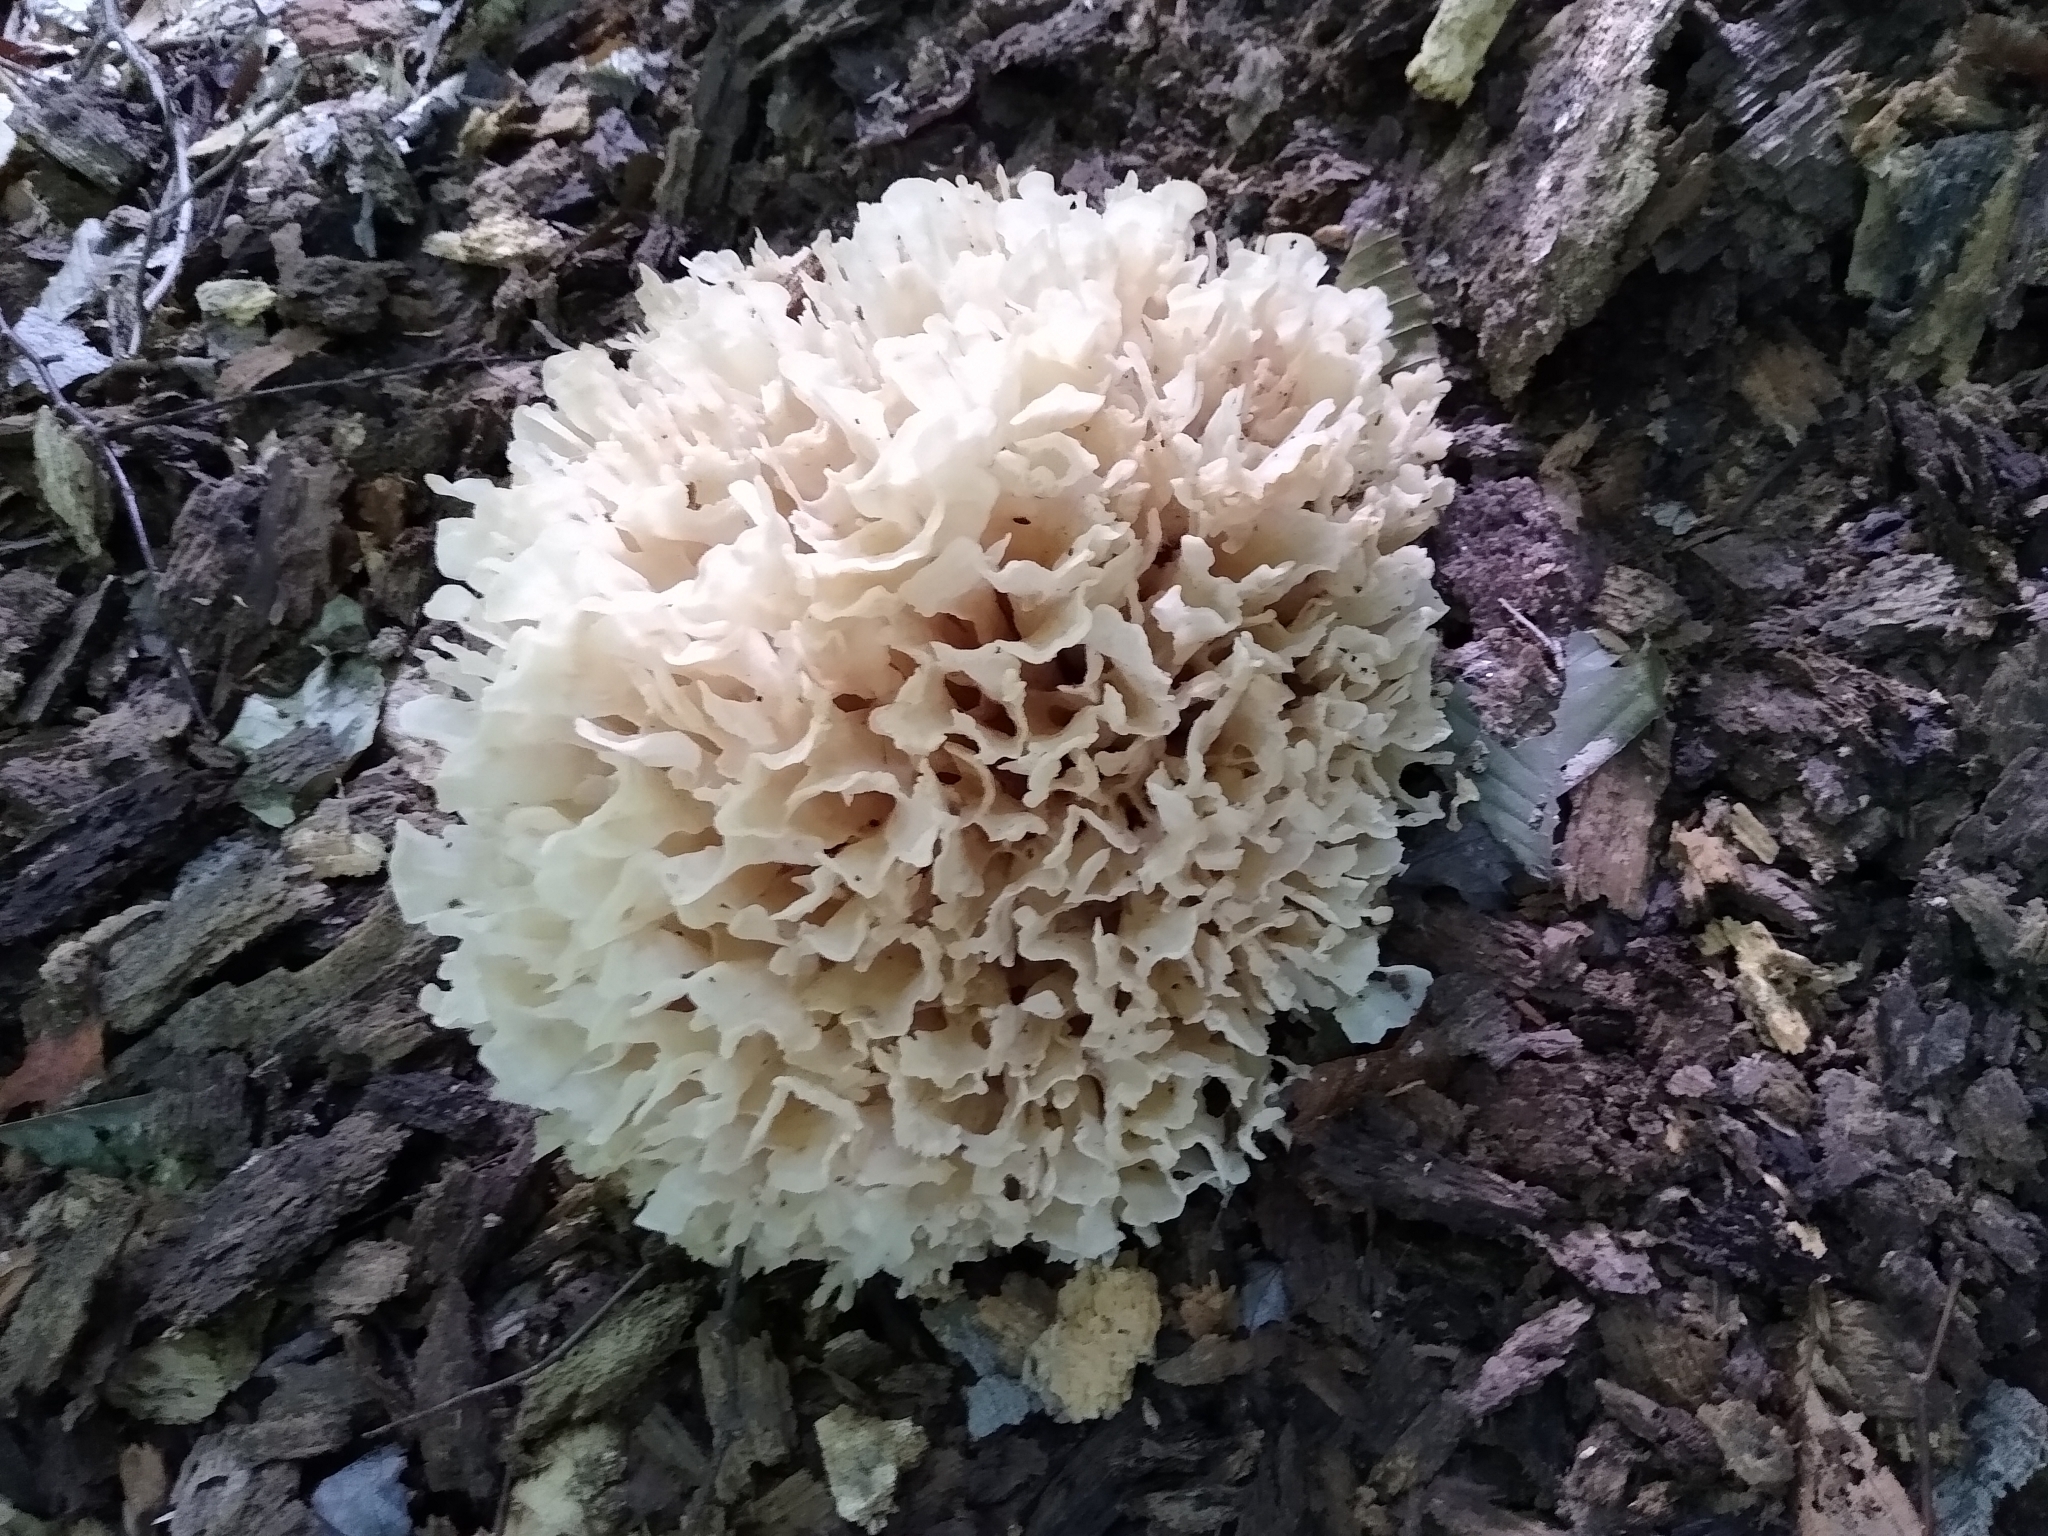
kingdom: Fungi
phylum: Basidiomycota
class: Agaricomycetes
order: Polyporales
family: Sparassidaceae
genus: Sparassis
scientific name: Sparassis spathulata
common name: Eastern cauliflower mushroom
